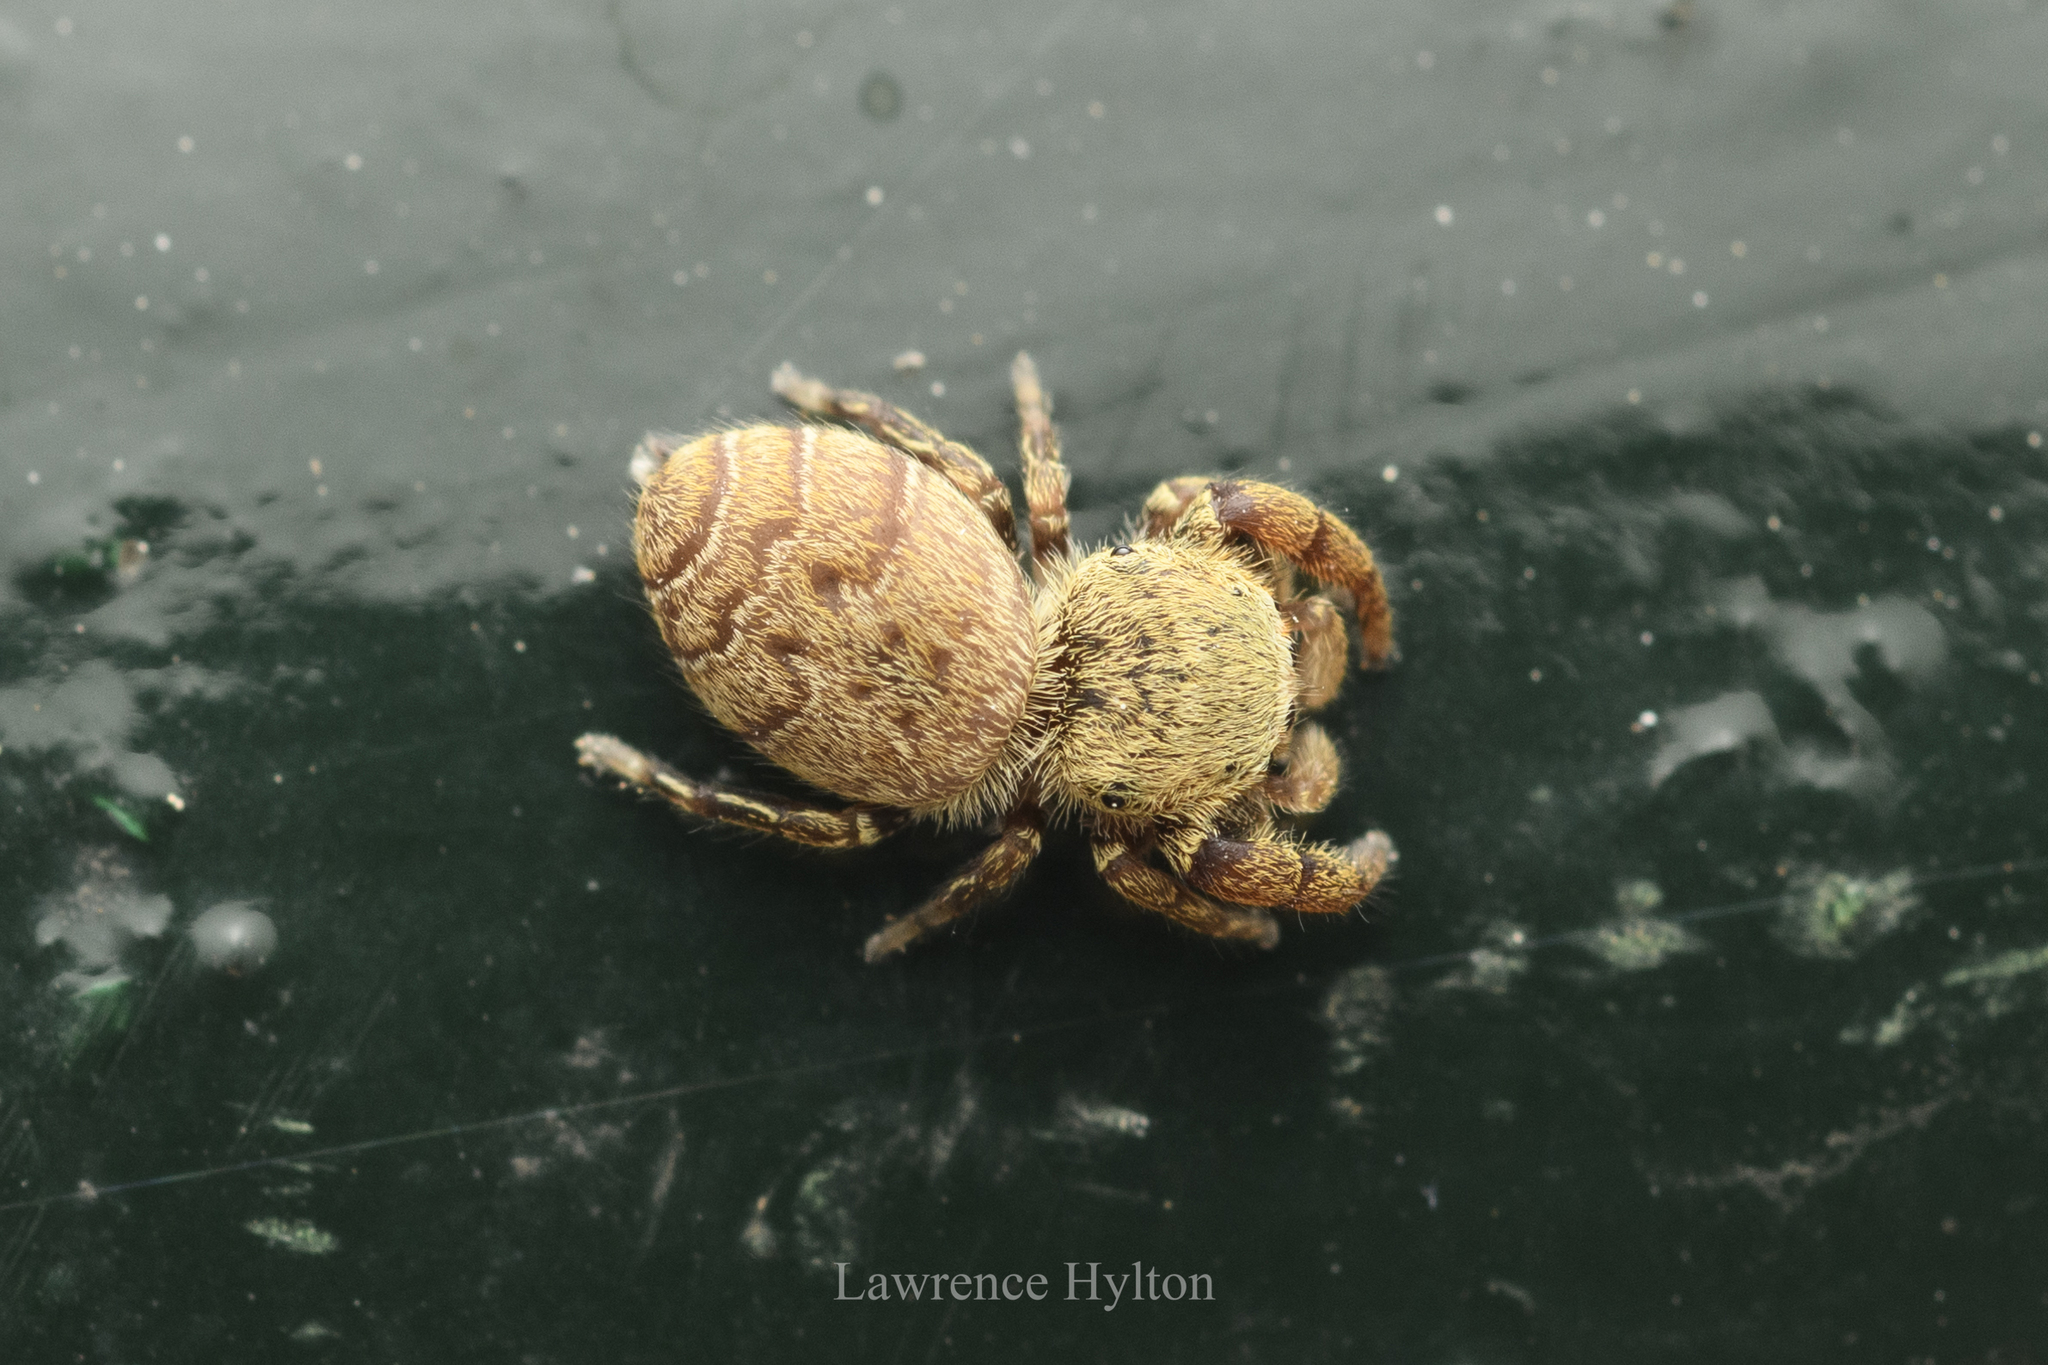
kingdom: Animalia
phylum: Arthropoda
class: Arachnida
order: Araneae
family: Salticidae
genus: Rhene
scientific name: Rhene flavicomans
